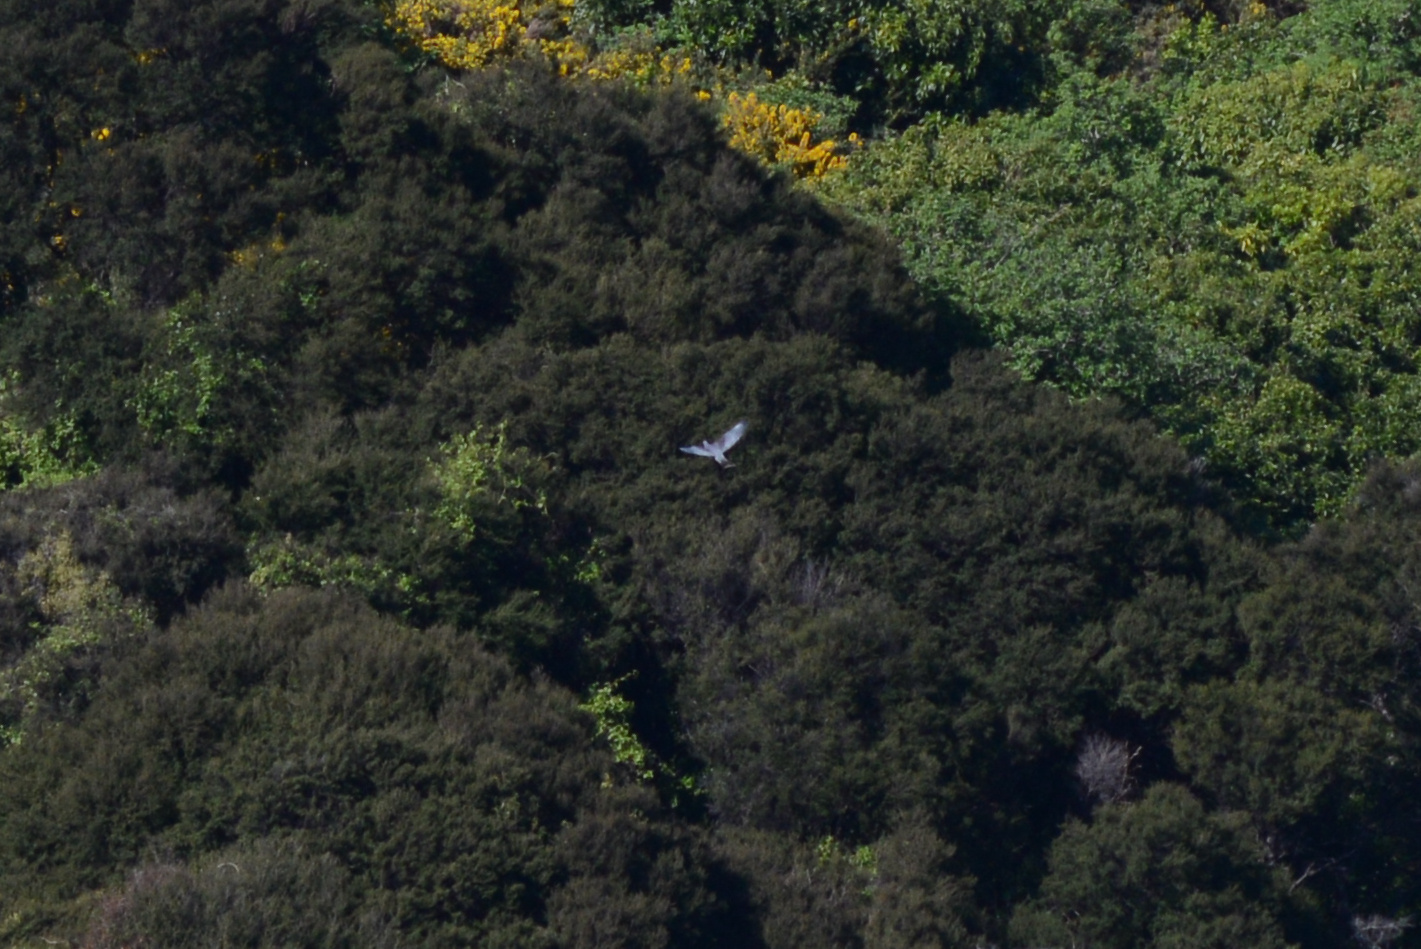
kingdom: Animalia
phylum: Chordata
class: Aves
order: Columbiformes
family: Columbidae
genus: Hemiphaga
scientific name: Hemiphaga novaeseelandiae
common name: New zealand pigeon
